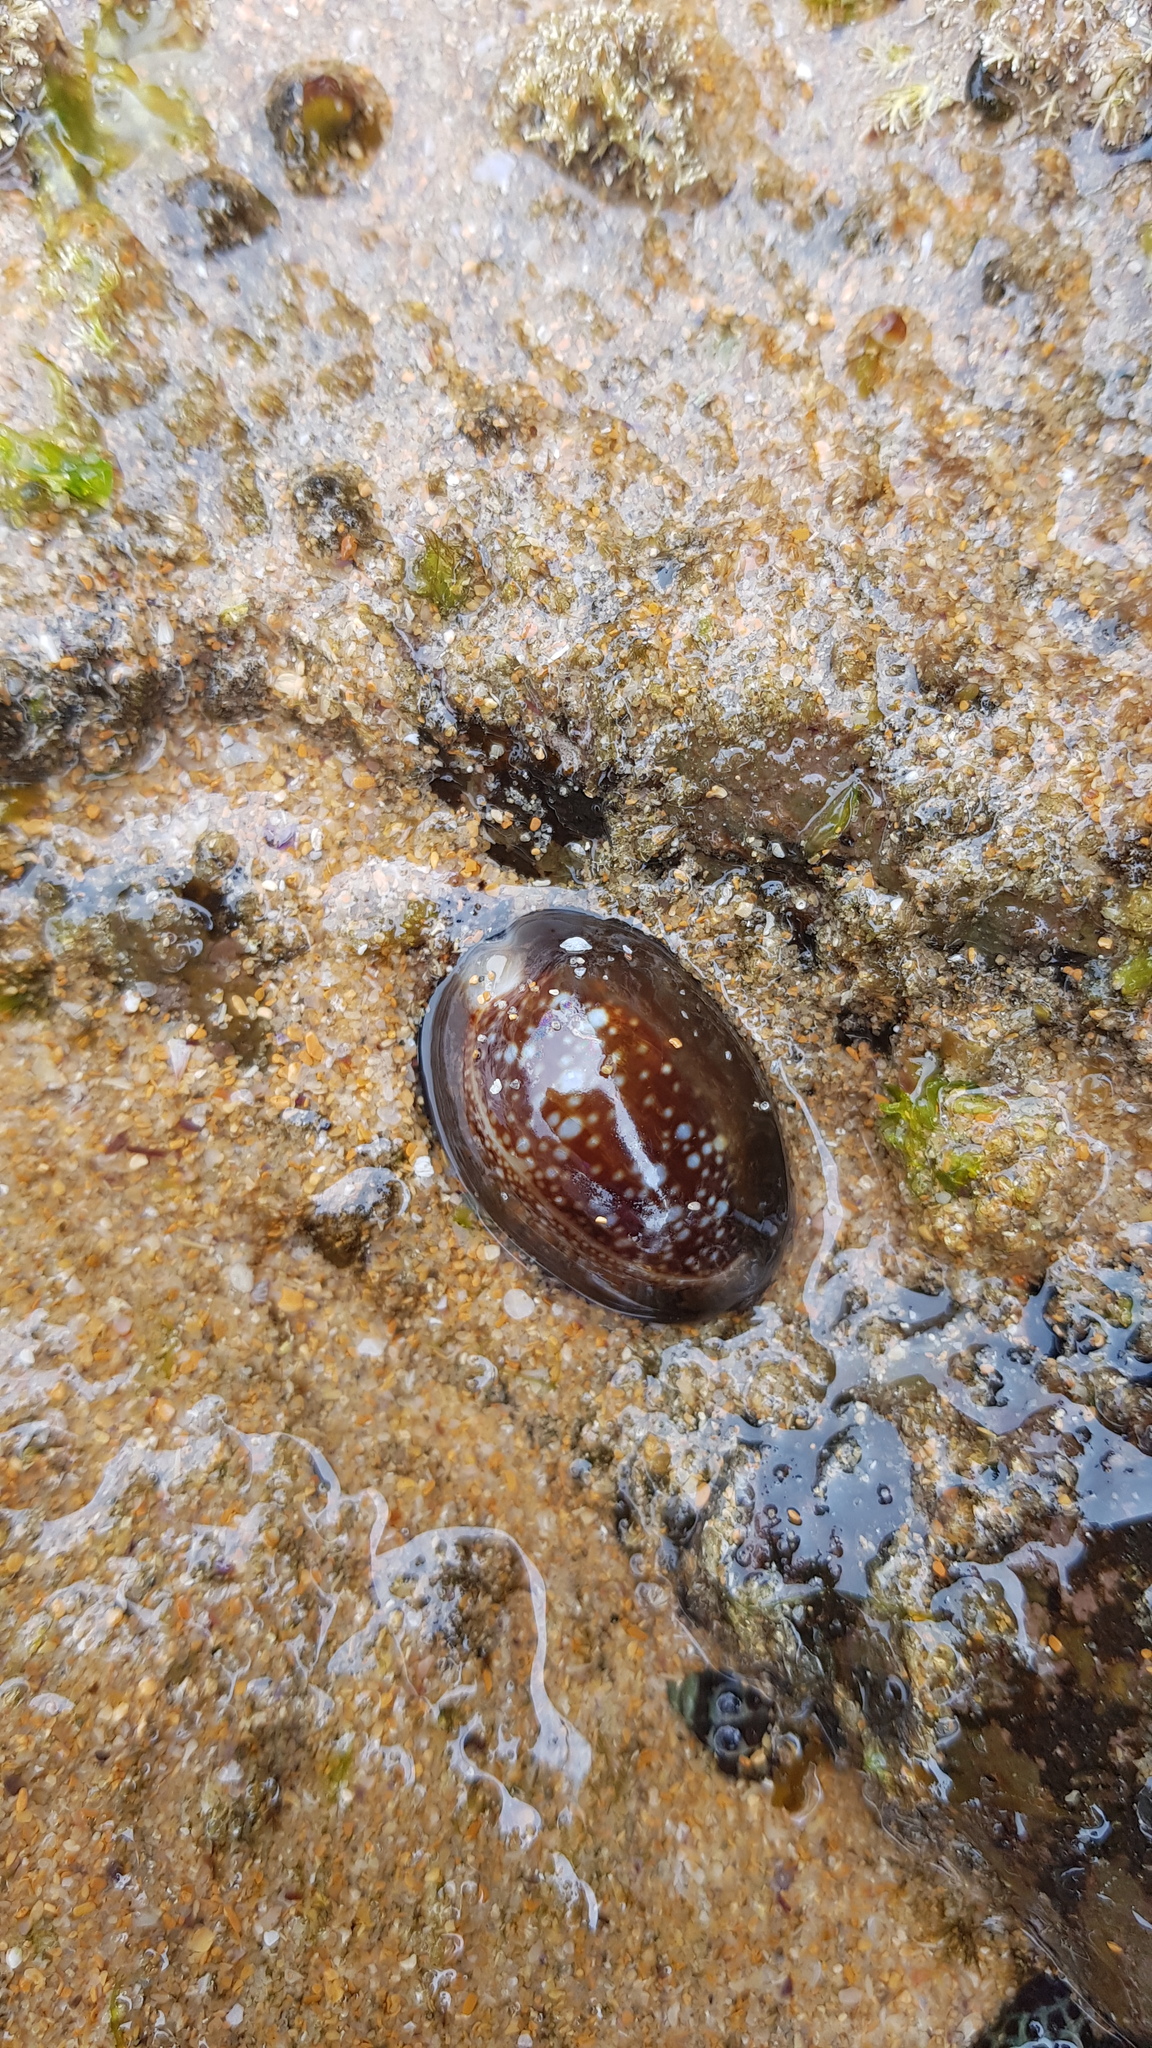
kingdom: Animalia
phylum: Mollusca
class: Gastropoda
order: Littorinimorpha
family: Cypraeidae
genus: Monetaria
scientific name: Monetaria caputserpentis
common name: Serpent's head cowrie
